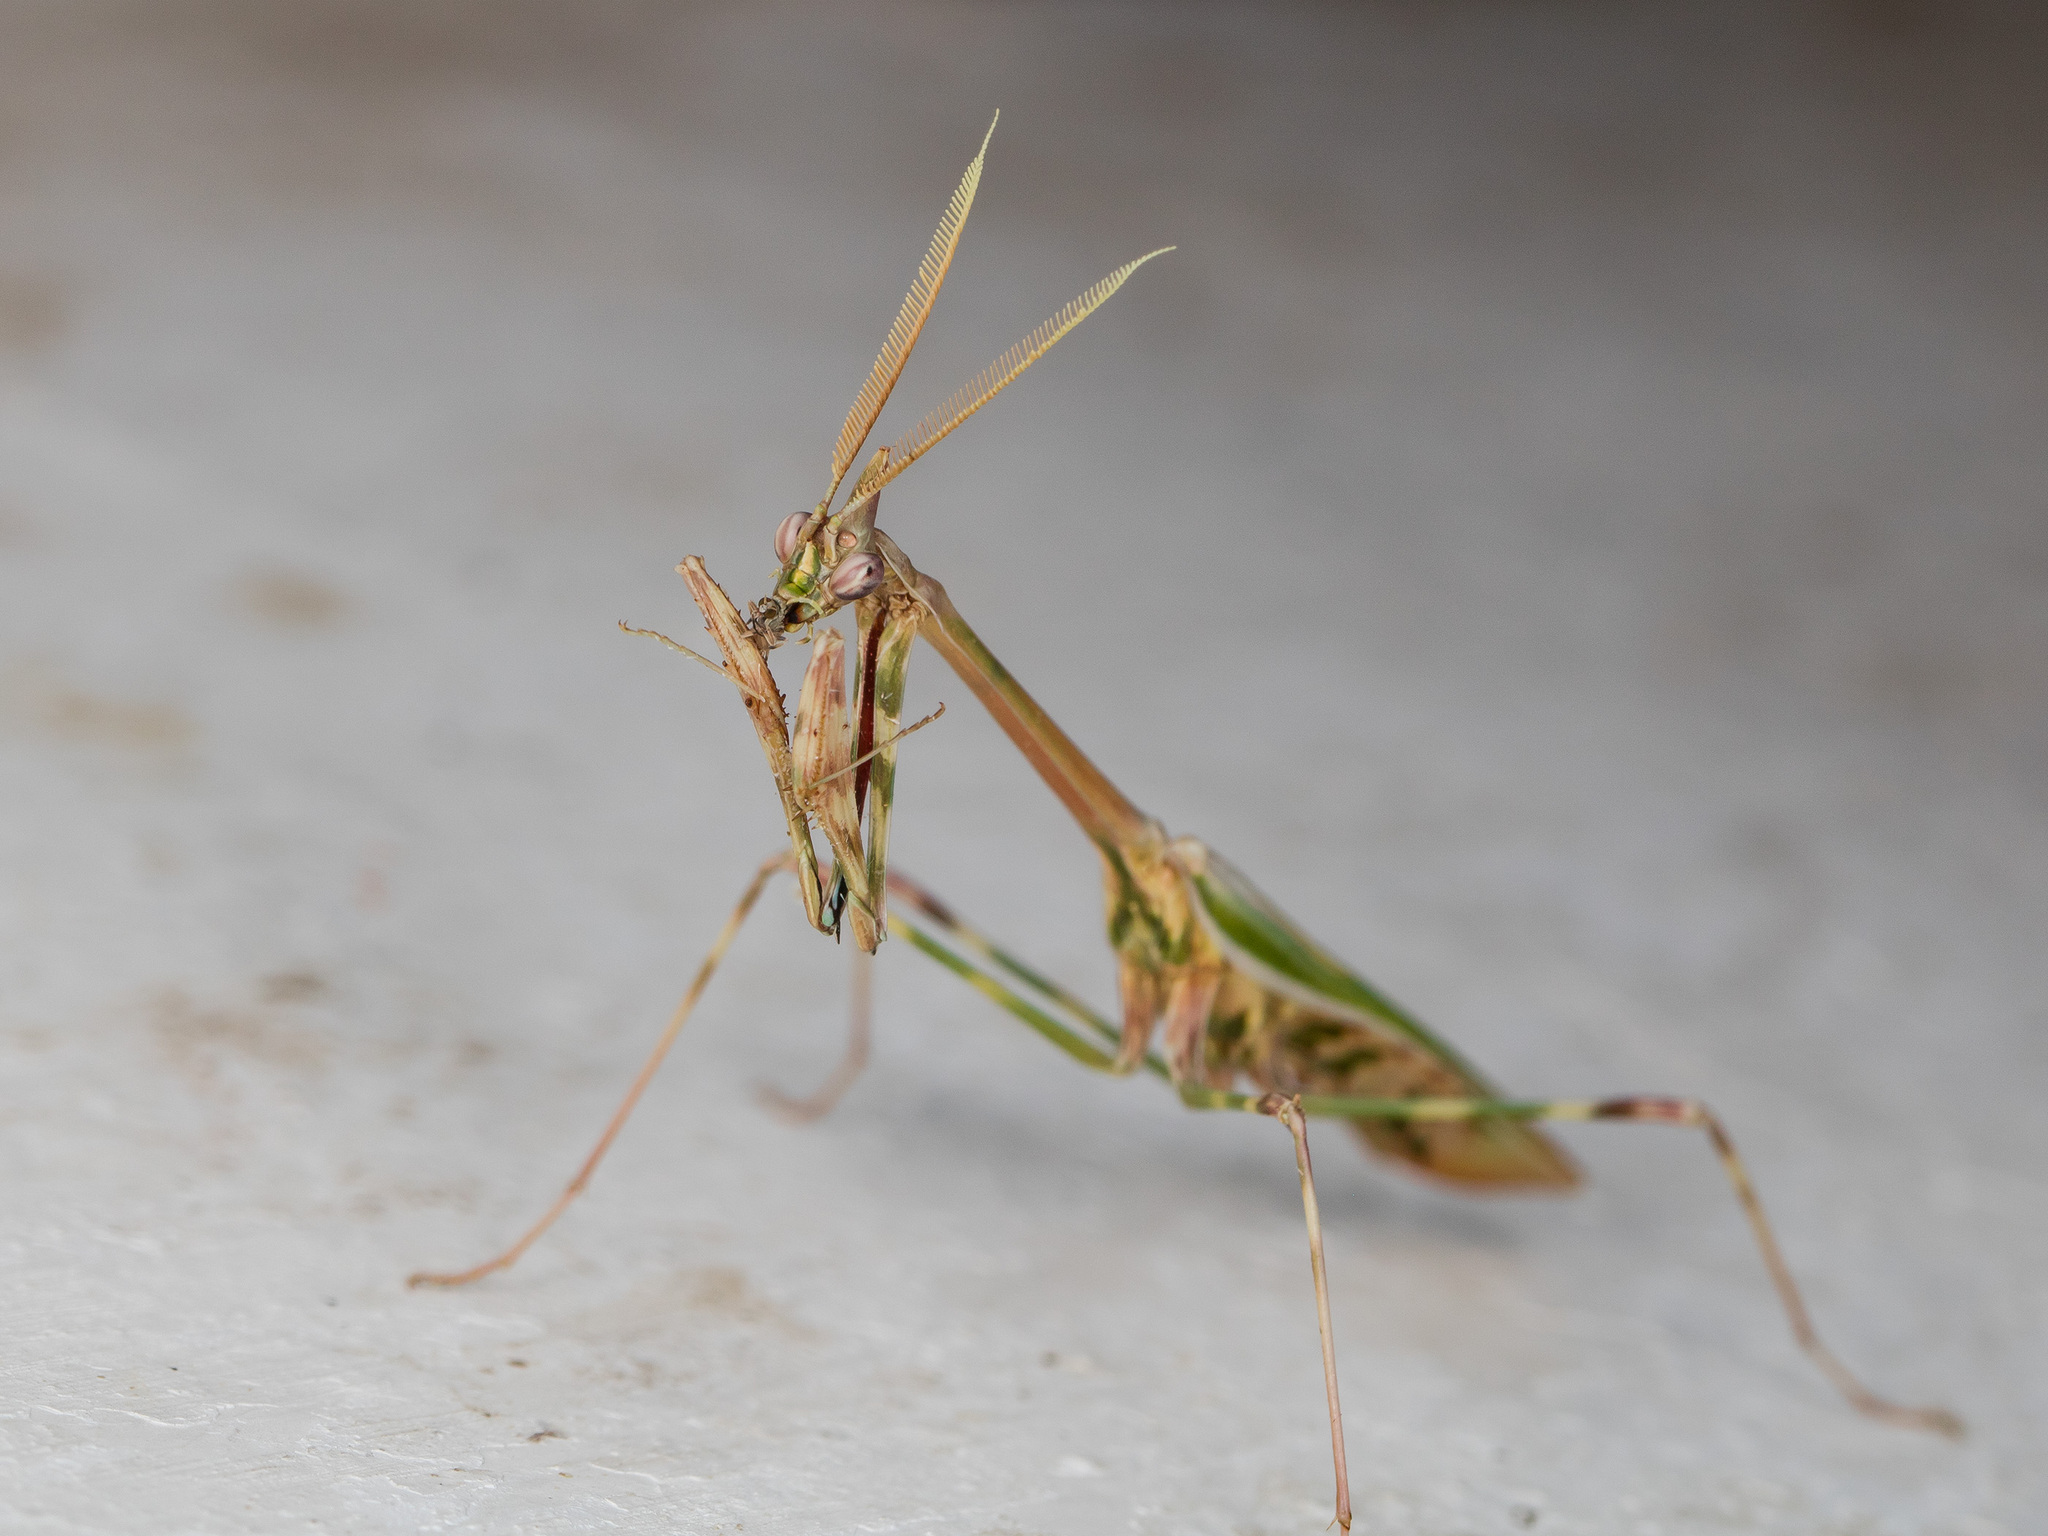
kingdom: Animalia
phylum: Arthropoda
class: Insecta
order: Mantodea
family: Empusidae
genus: Empusa
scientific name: Empusa pennicornis
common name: Conehead mantis
